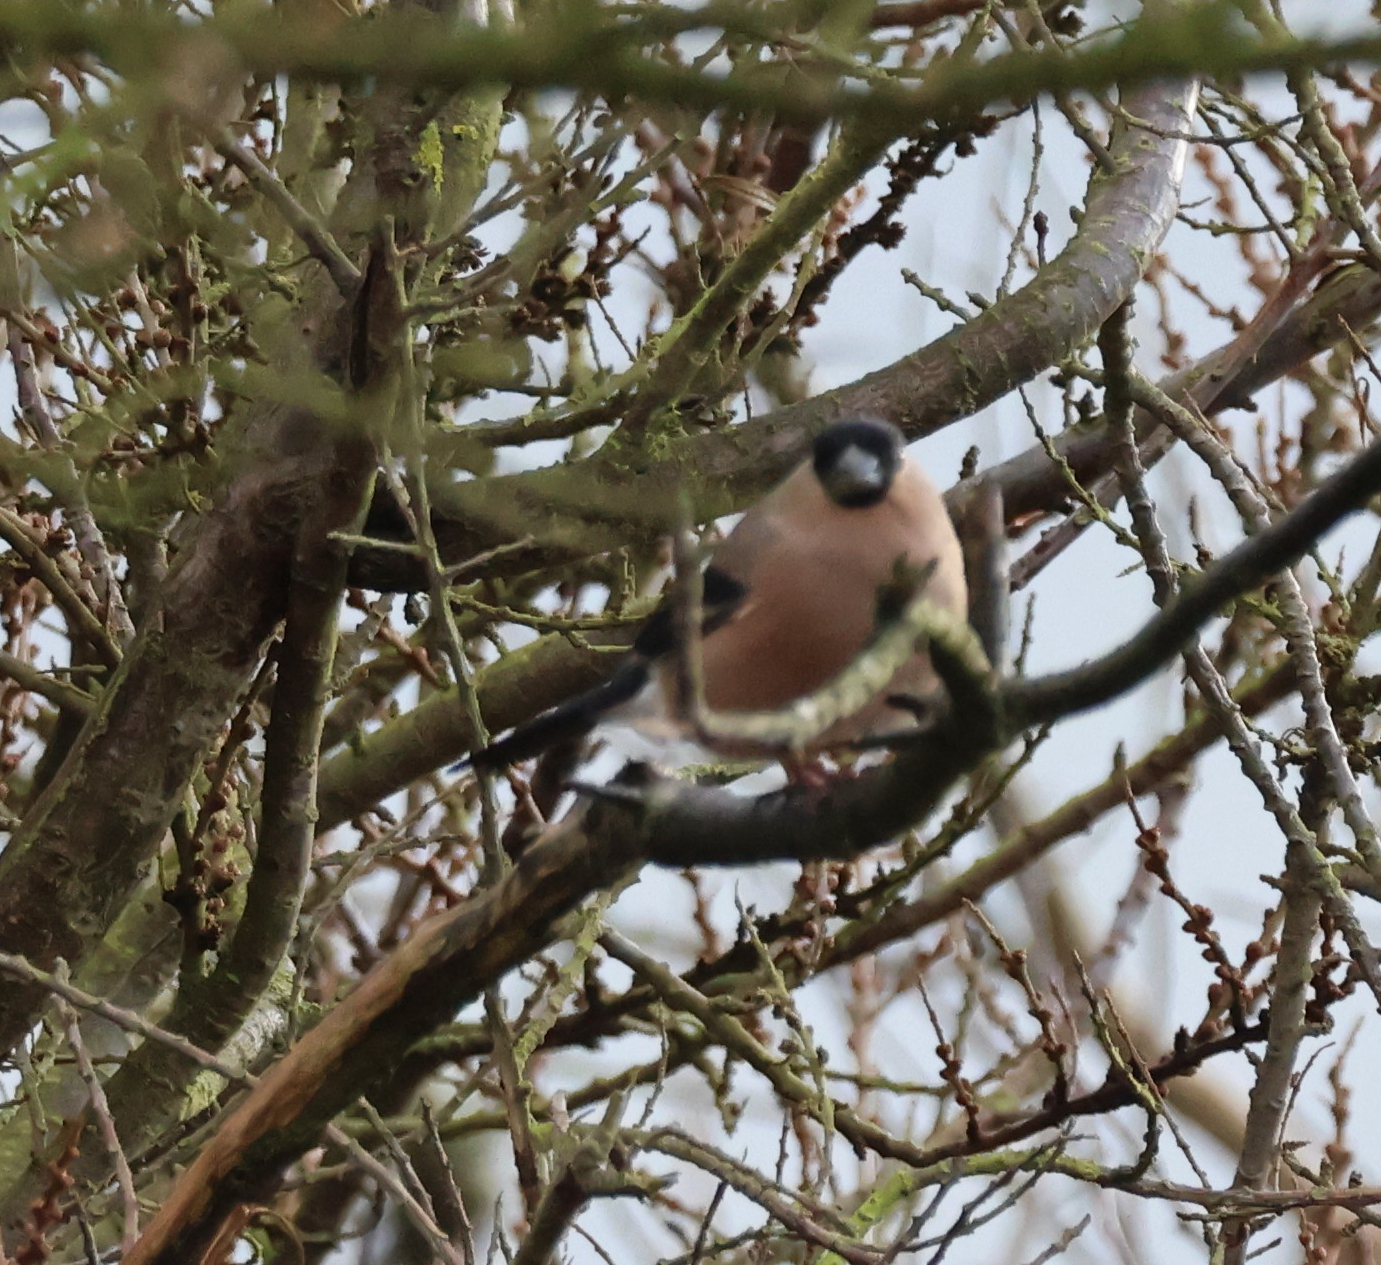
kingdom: Animalia
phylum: Chordata
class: Aves
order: Passeriformes
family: Fringillidae
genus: Pyrrhula
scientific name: Pyrrhula pyrrhula
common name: Eurasian bullfinch
